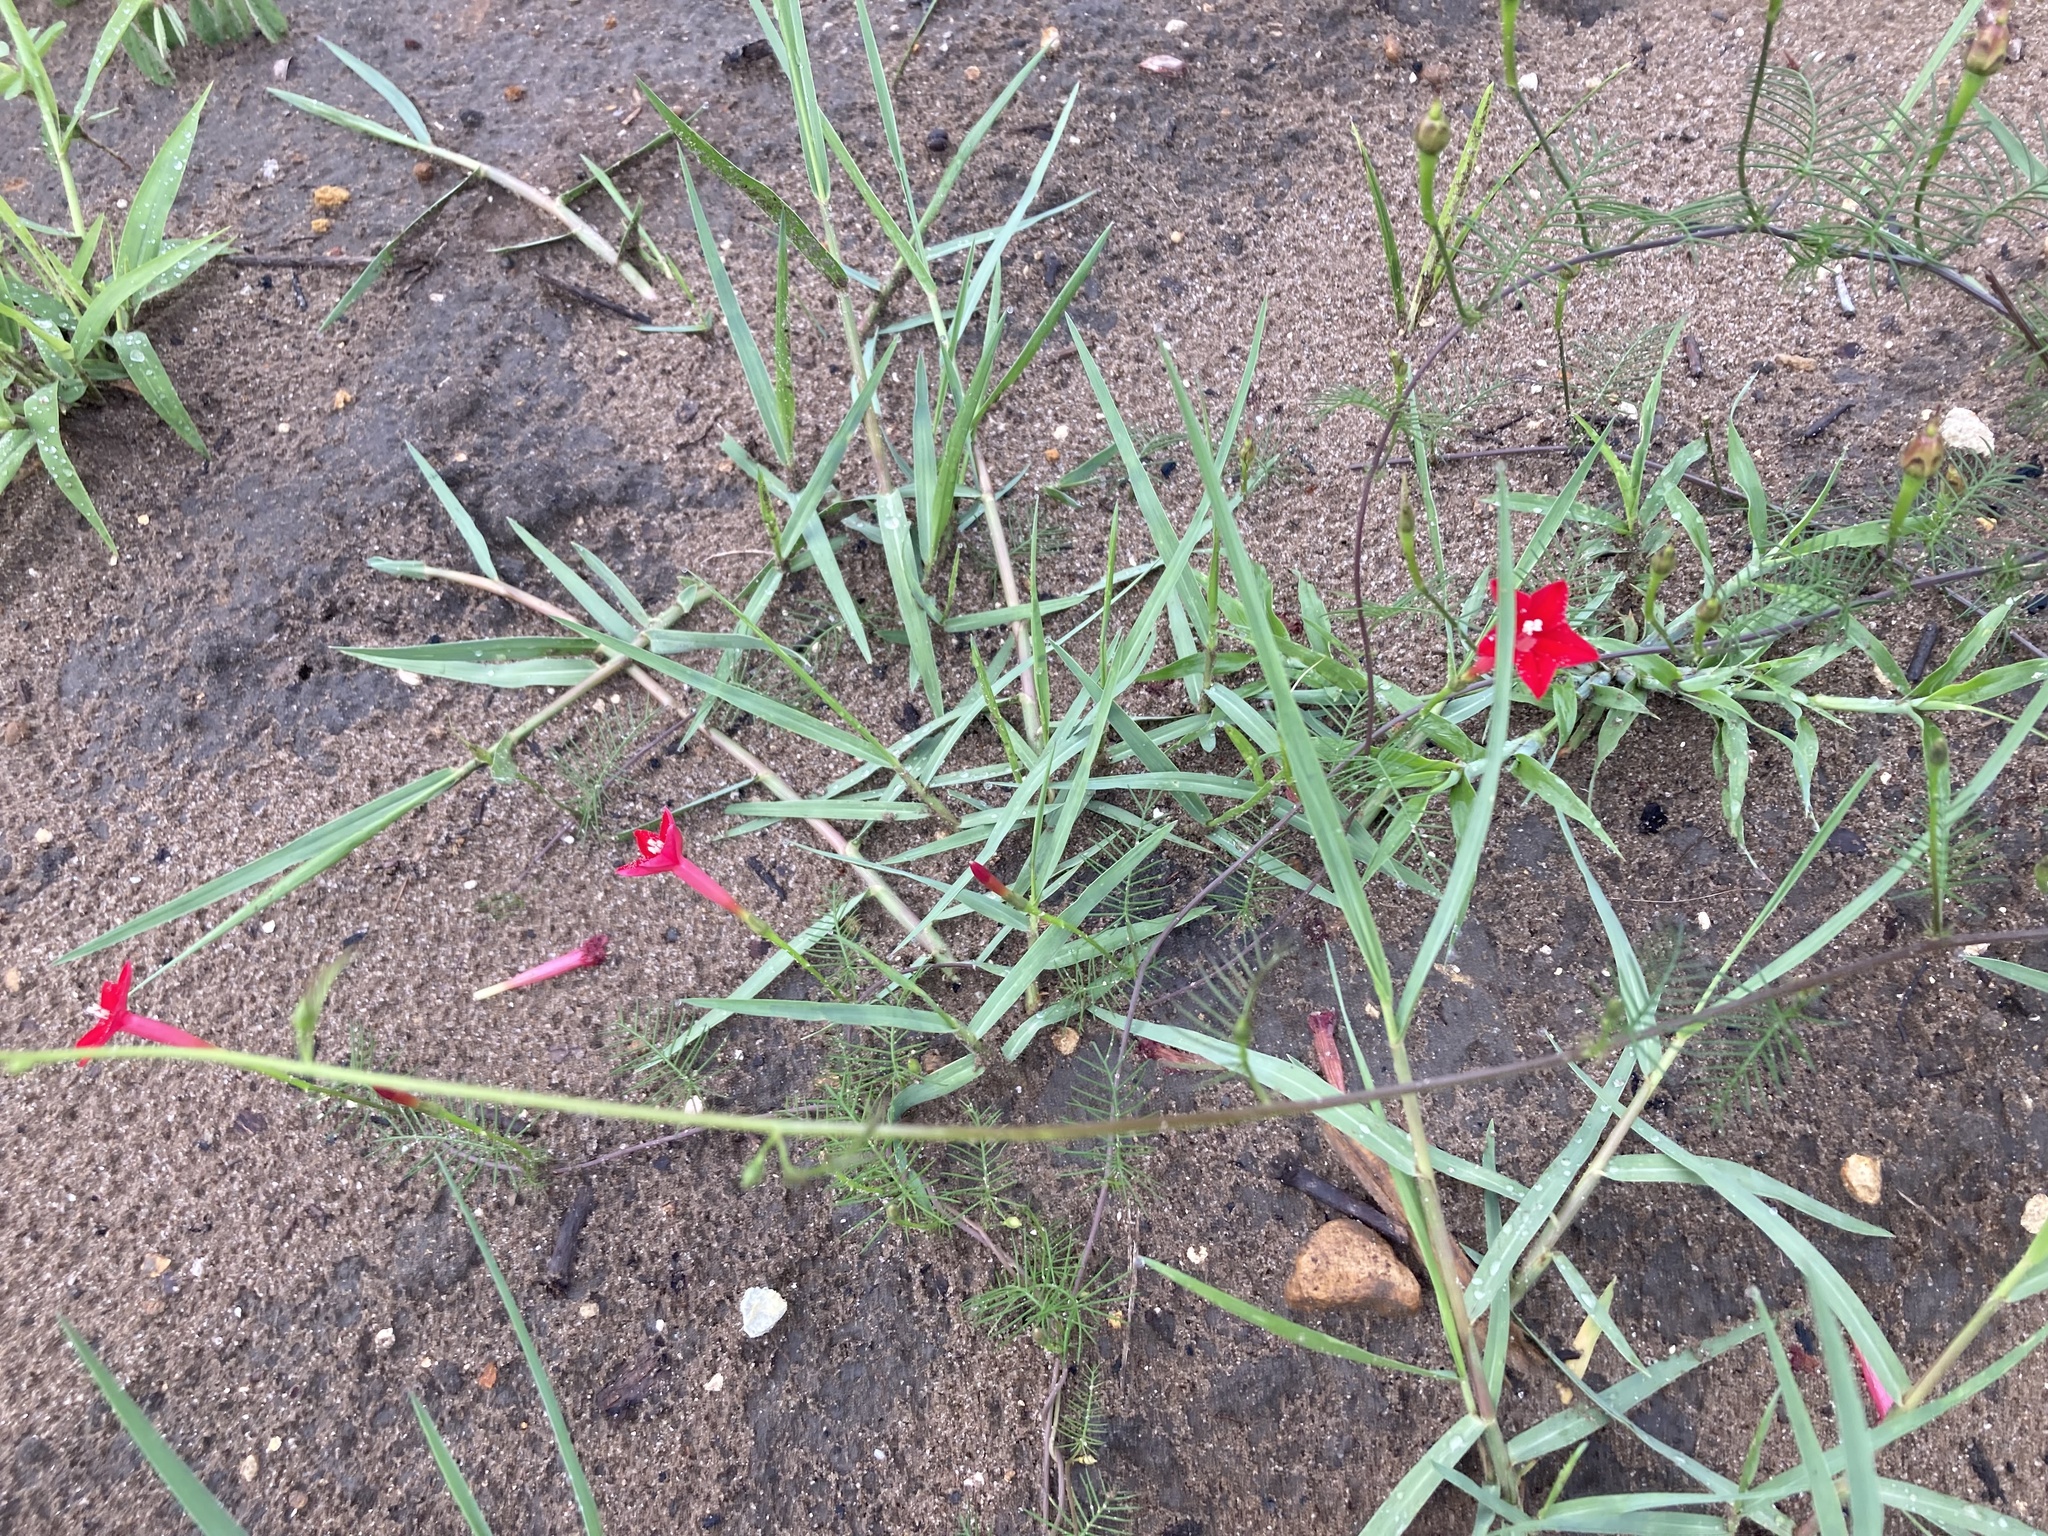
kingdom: Plantae
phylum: Tracheophyta
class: Magnoliopsida
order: Solanales
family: Convolvulaceae
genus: Ipomoea
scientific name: Ipomoea quamoclit
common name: Cypress vine
